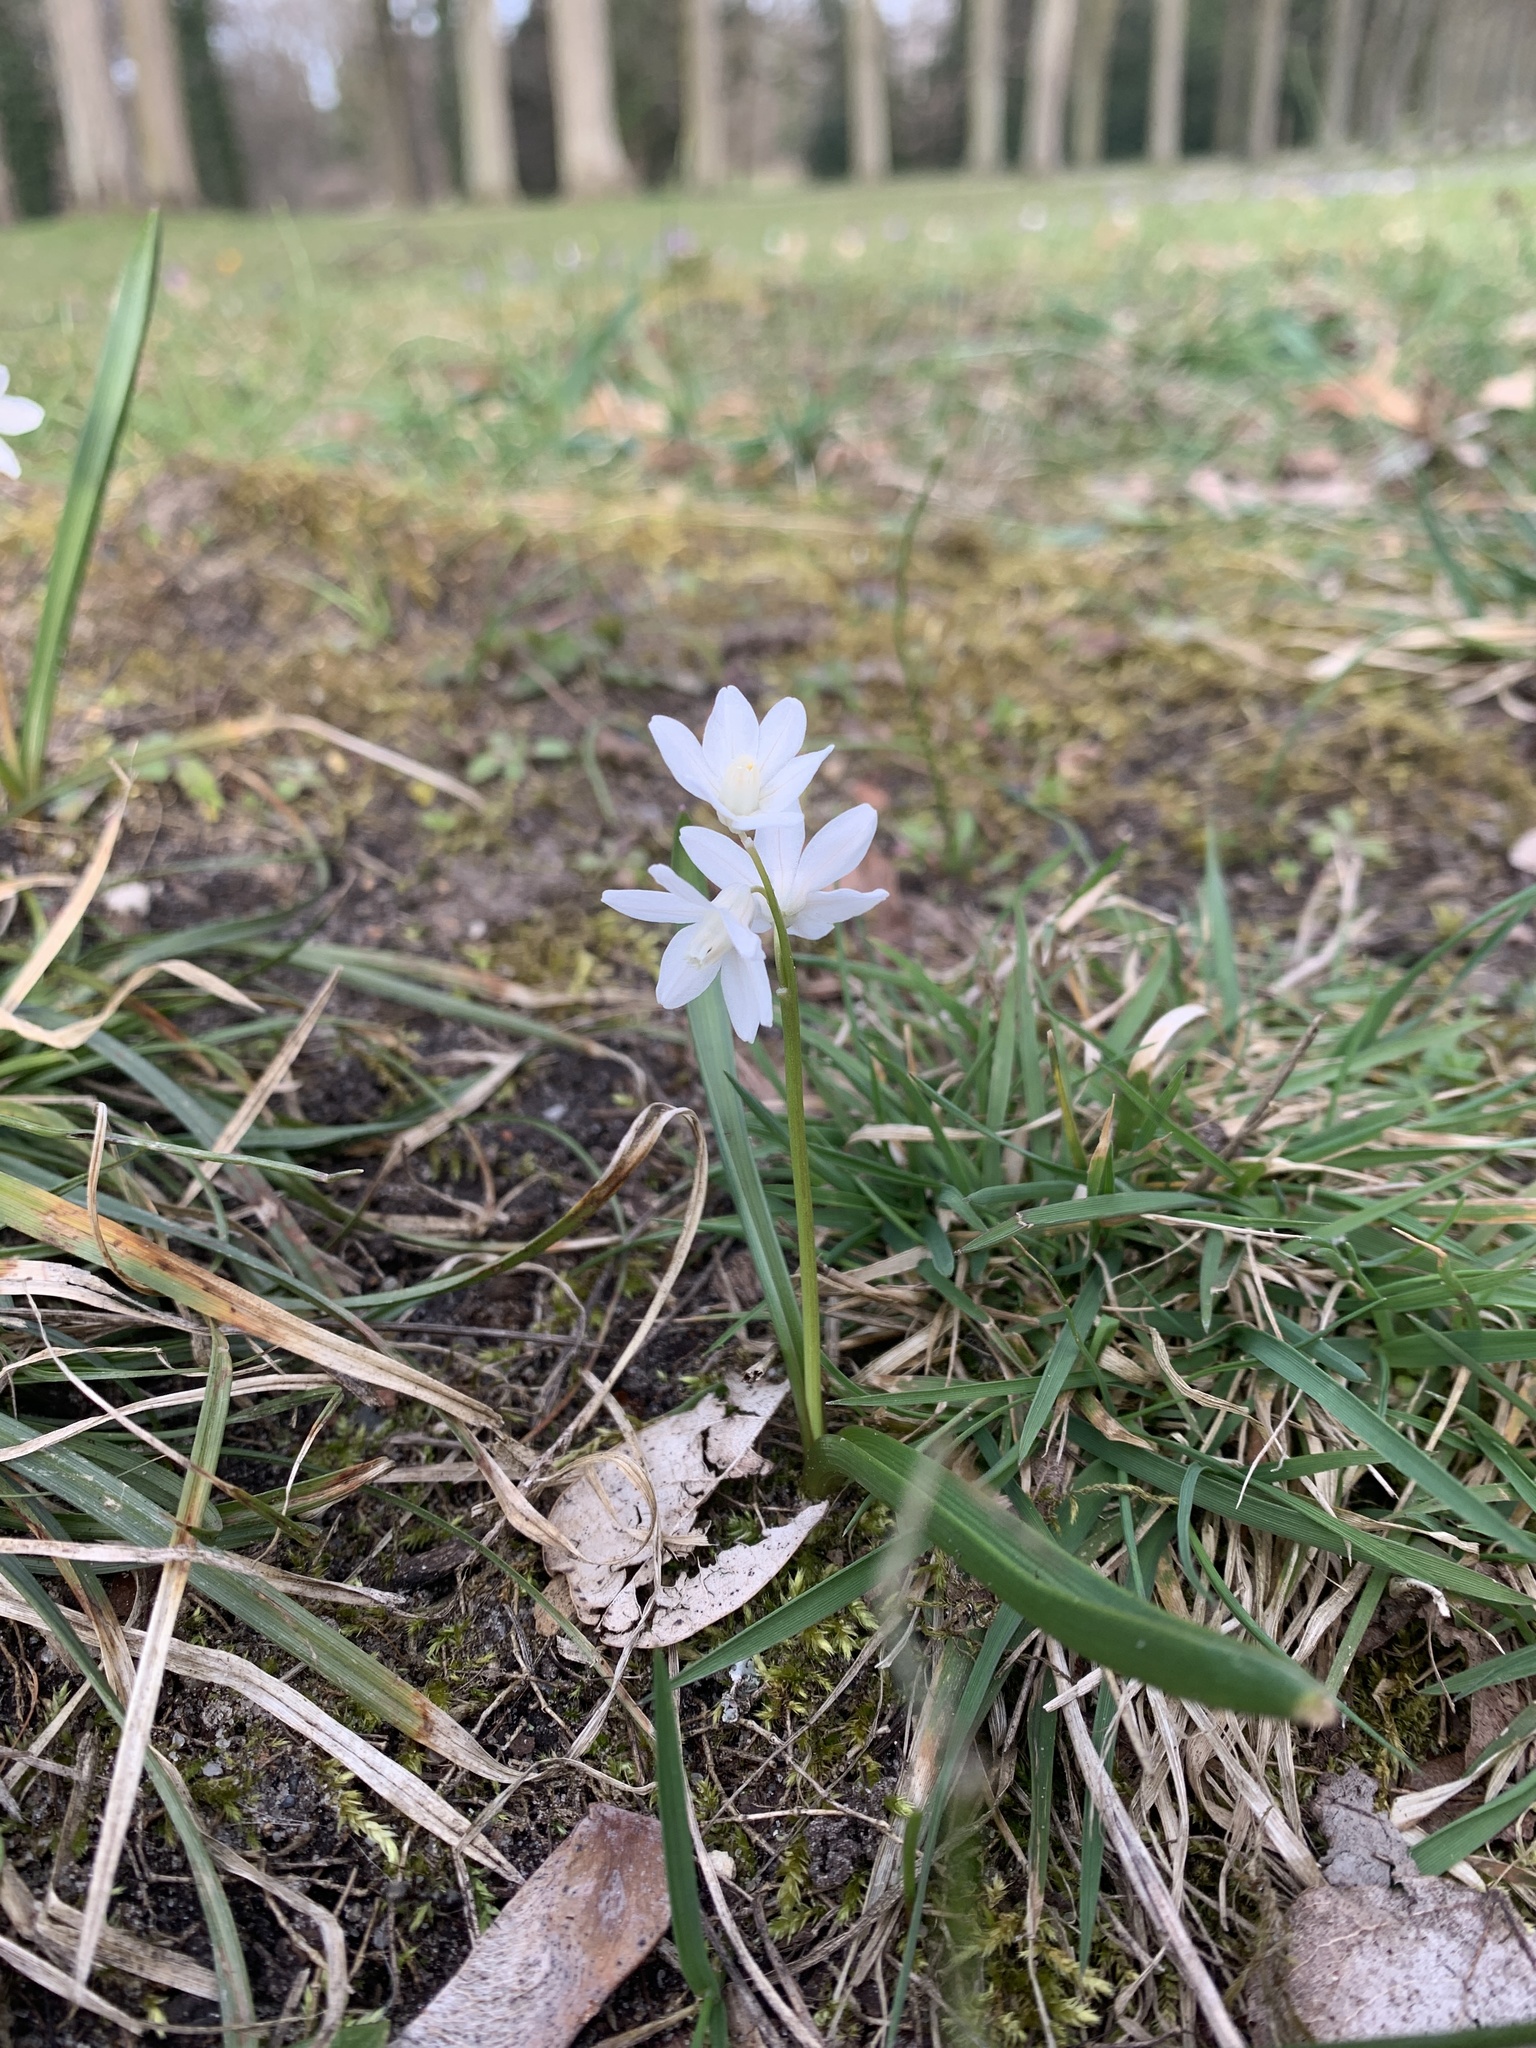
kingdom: Plantae
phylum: Tracheophyta
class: Liliopsida
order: Asparagales
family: Asparagaceae
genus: Puschkinia
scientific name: Puschkinia scilloides
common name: Striped squill
